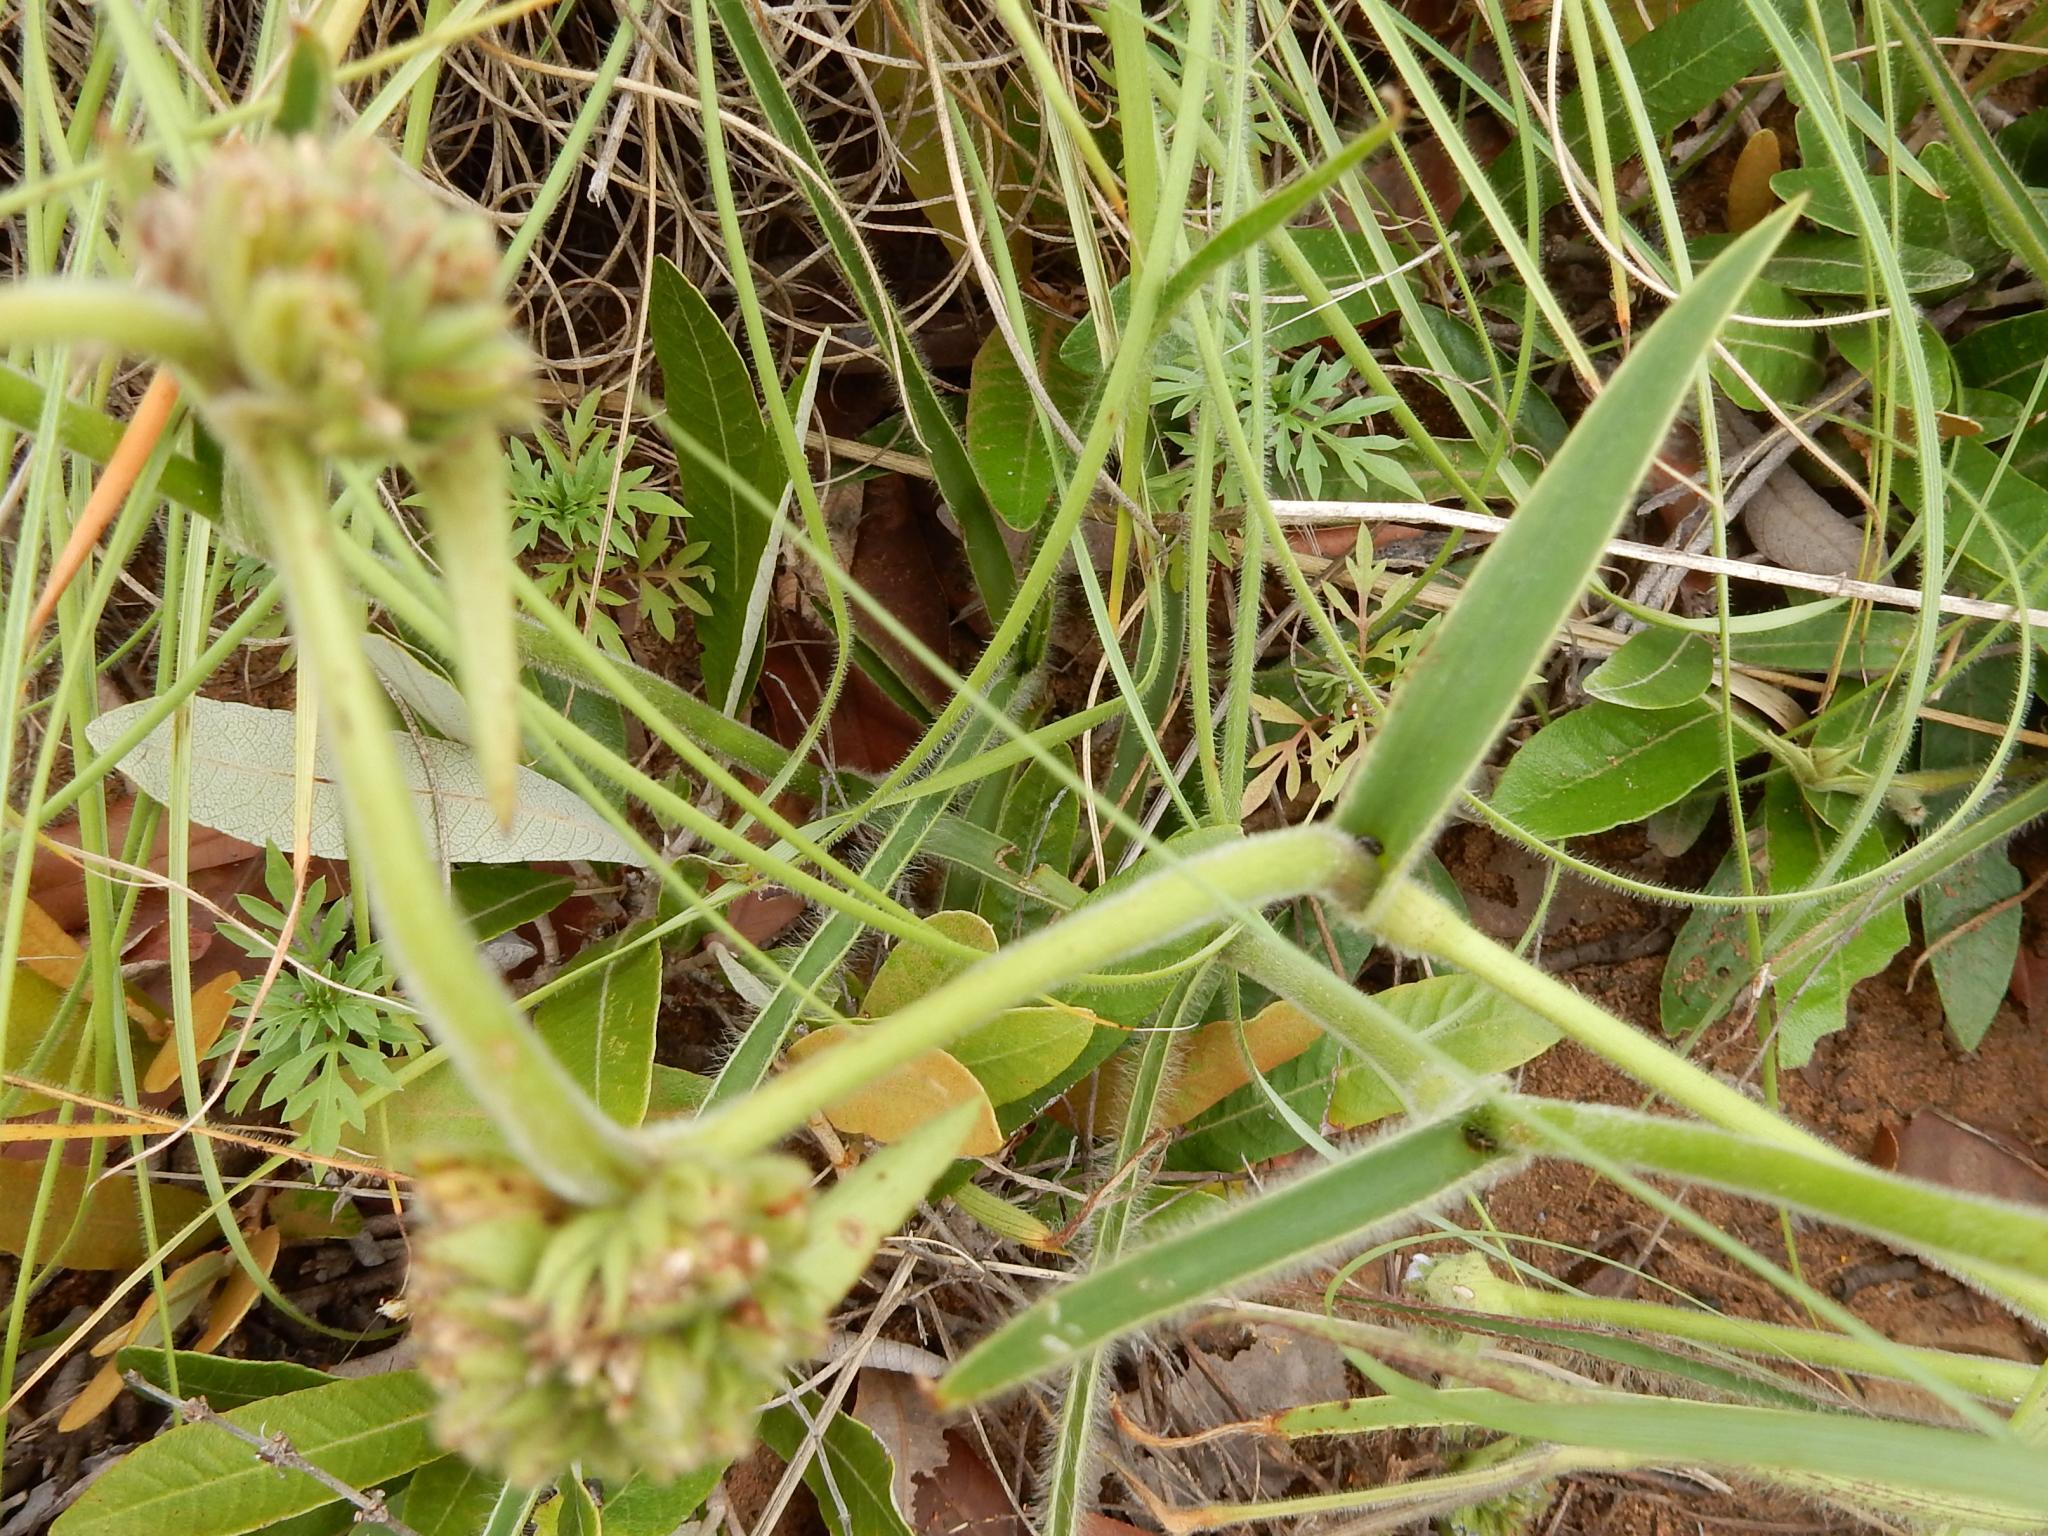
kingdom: Plantae
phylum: Tracheophyta
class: Liliopsida
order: Commelinales
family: Commelinaceae
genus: Cyanotis
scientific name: Cyanotis speciosa
